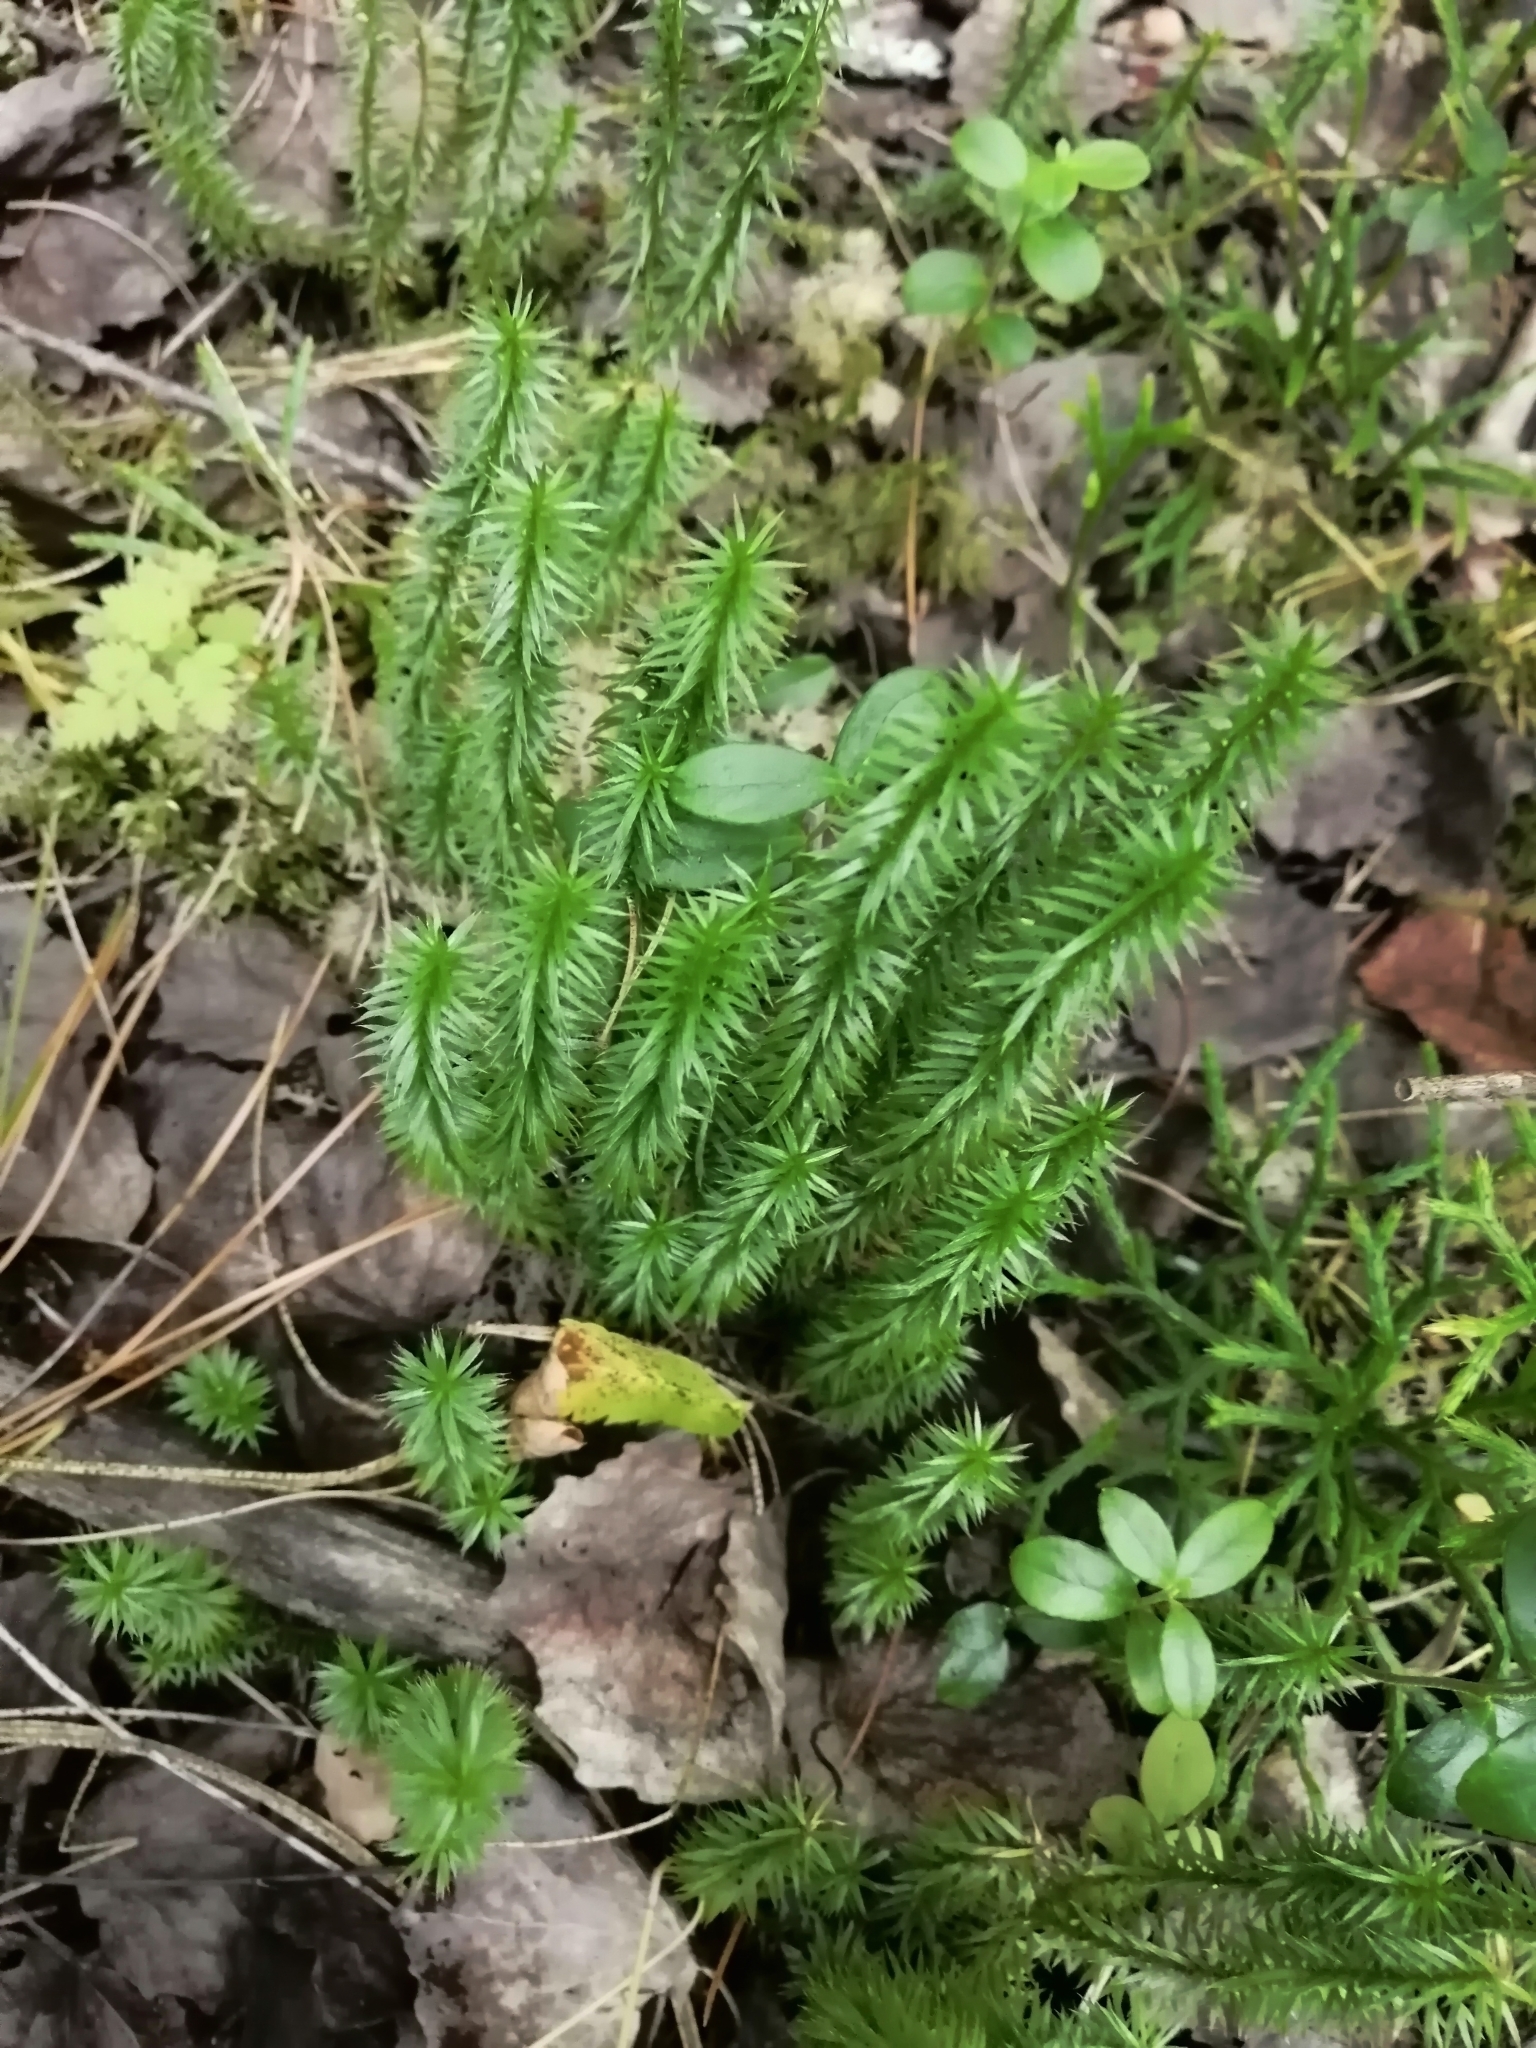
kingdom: Plantae
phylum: Tracheophyta
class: Lycopodiopsida
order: Lycopodiales
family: Lycopodiaceae
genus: Spinulum
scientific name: Spinulum annotinum
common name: Interrupted club-moss
